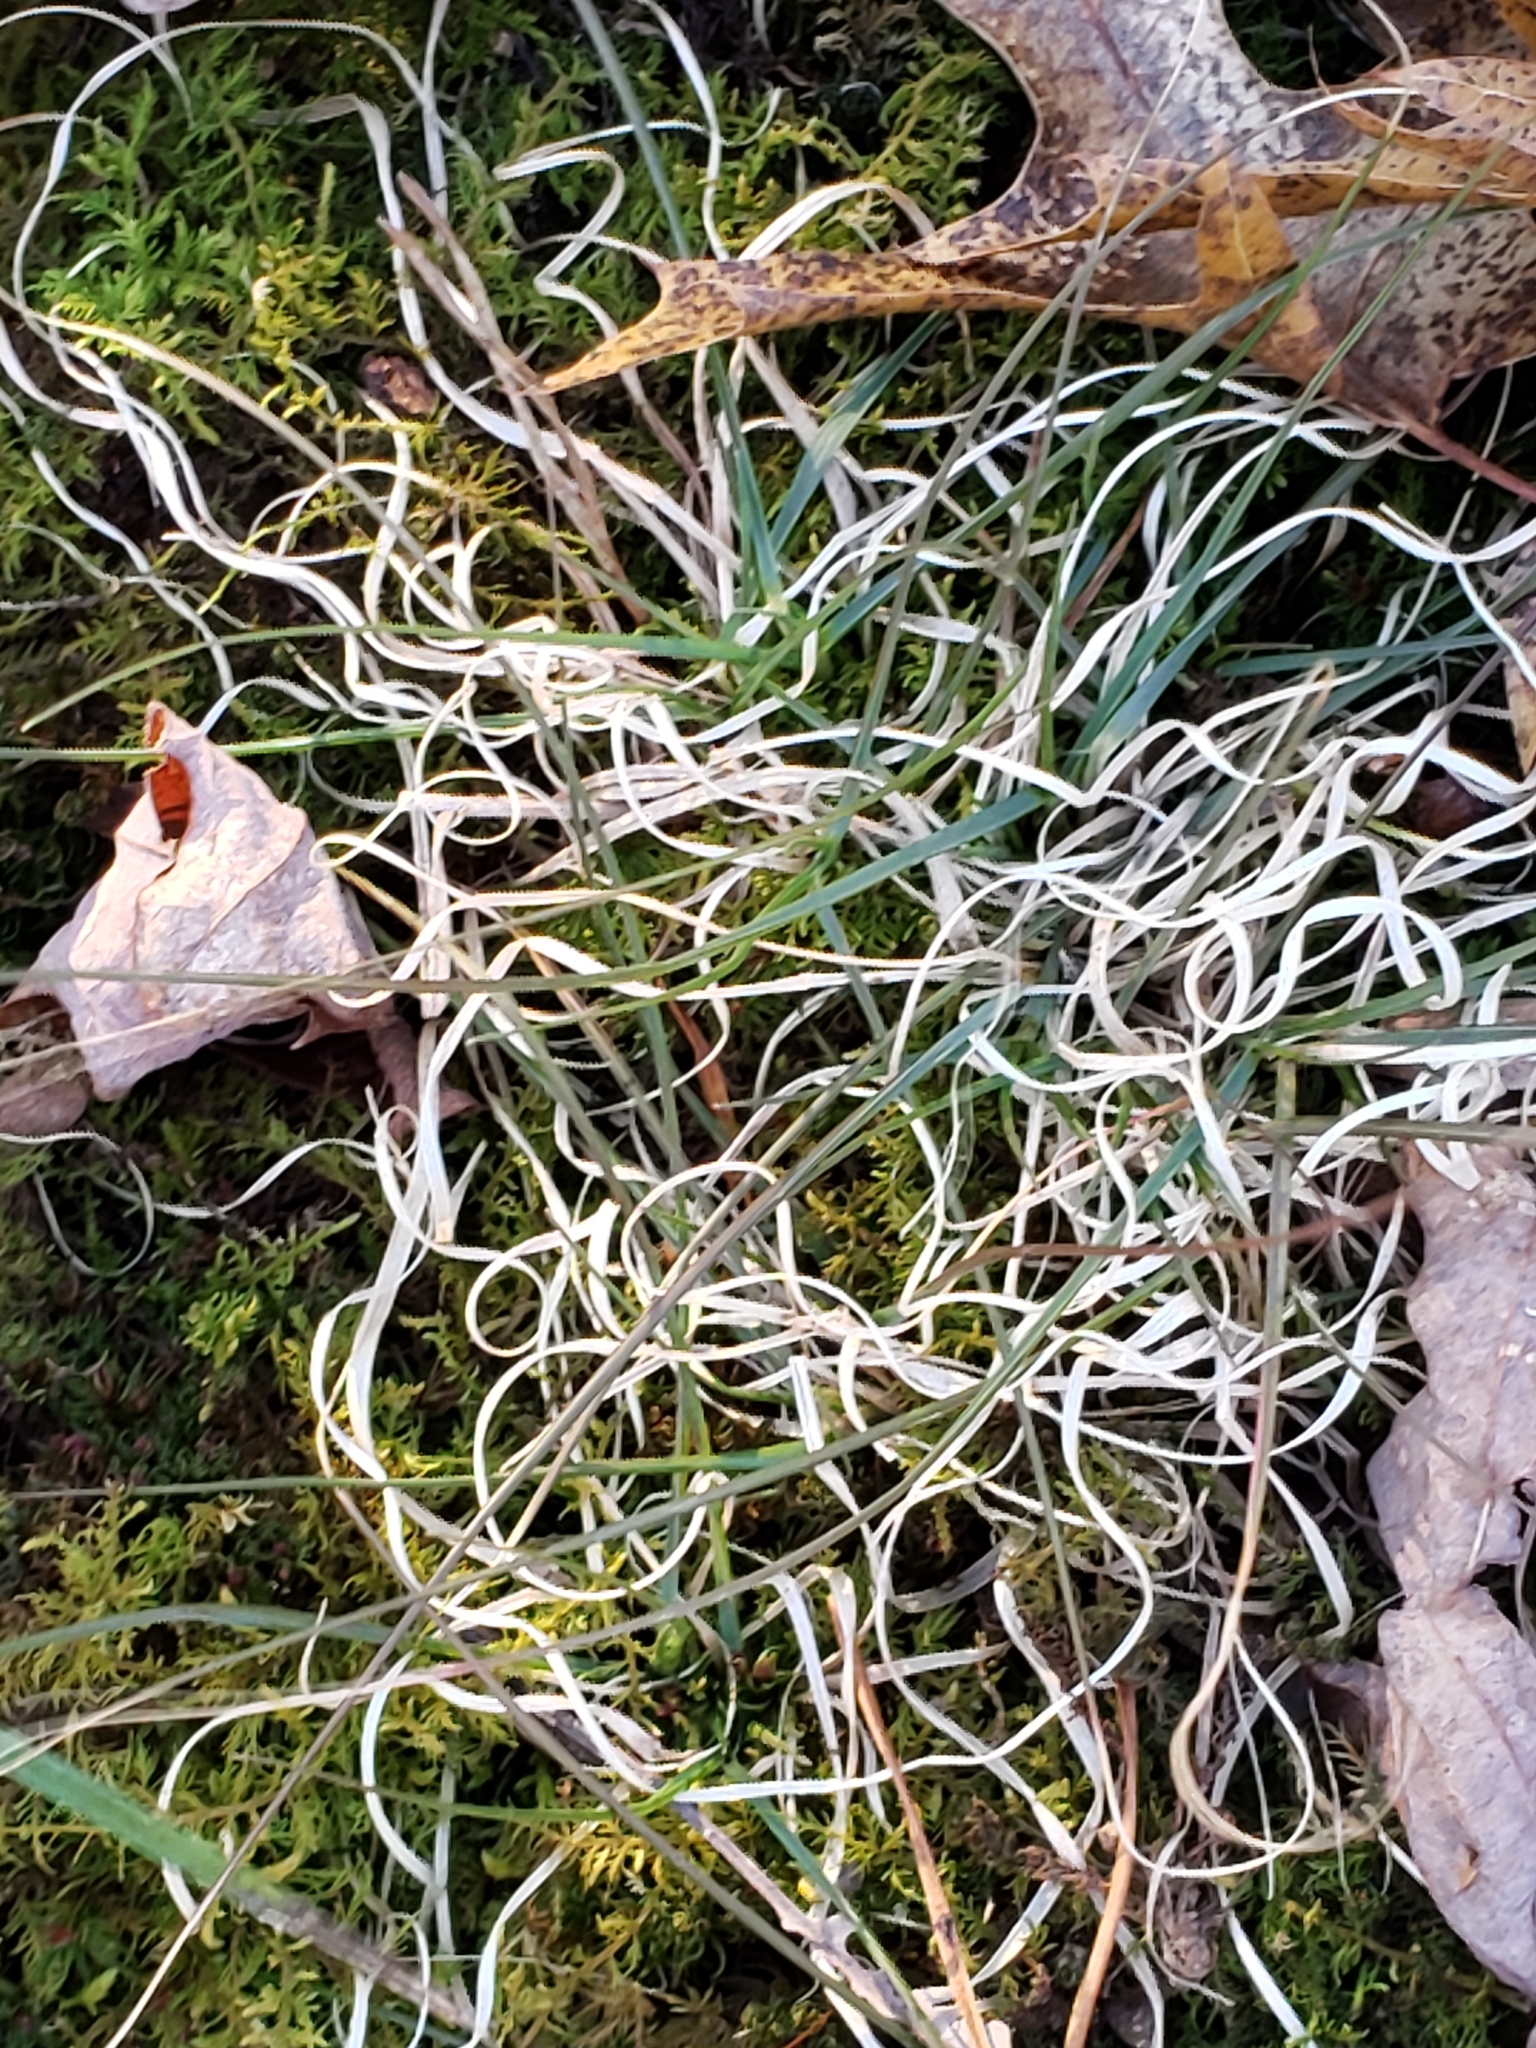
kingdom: Plantae
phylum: Tracheophyta
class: Liliopsida
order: Poales
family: Poaceae
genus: Danthonia
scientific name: Danthonia spicata
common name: Common wild oatgrass
